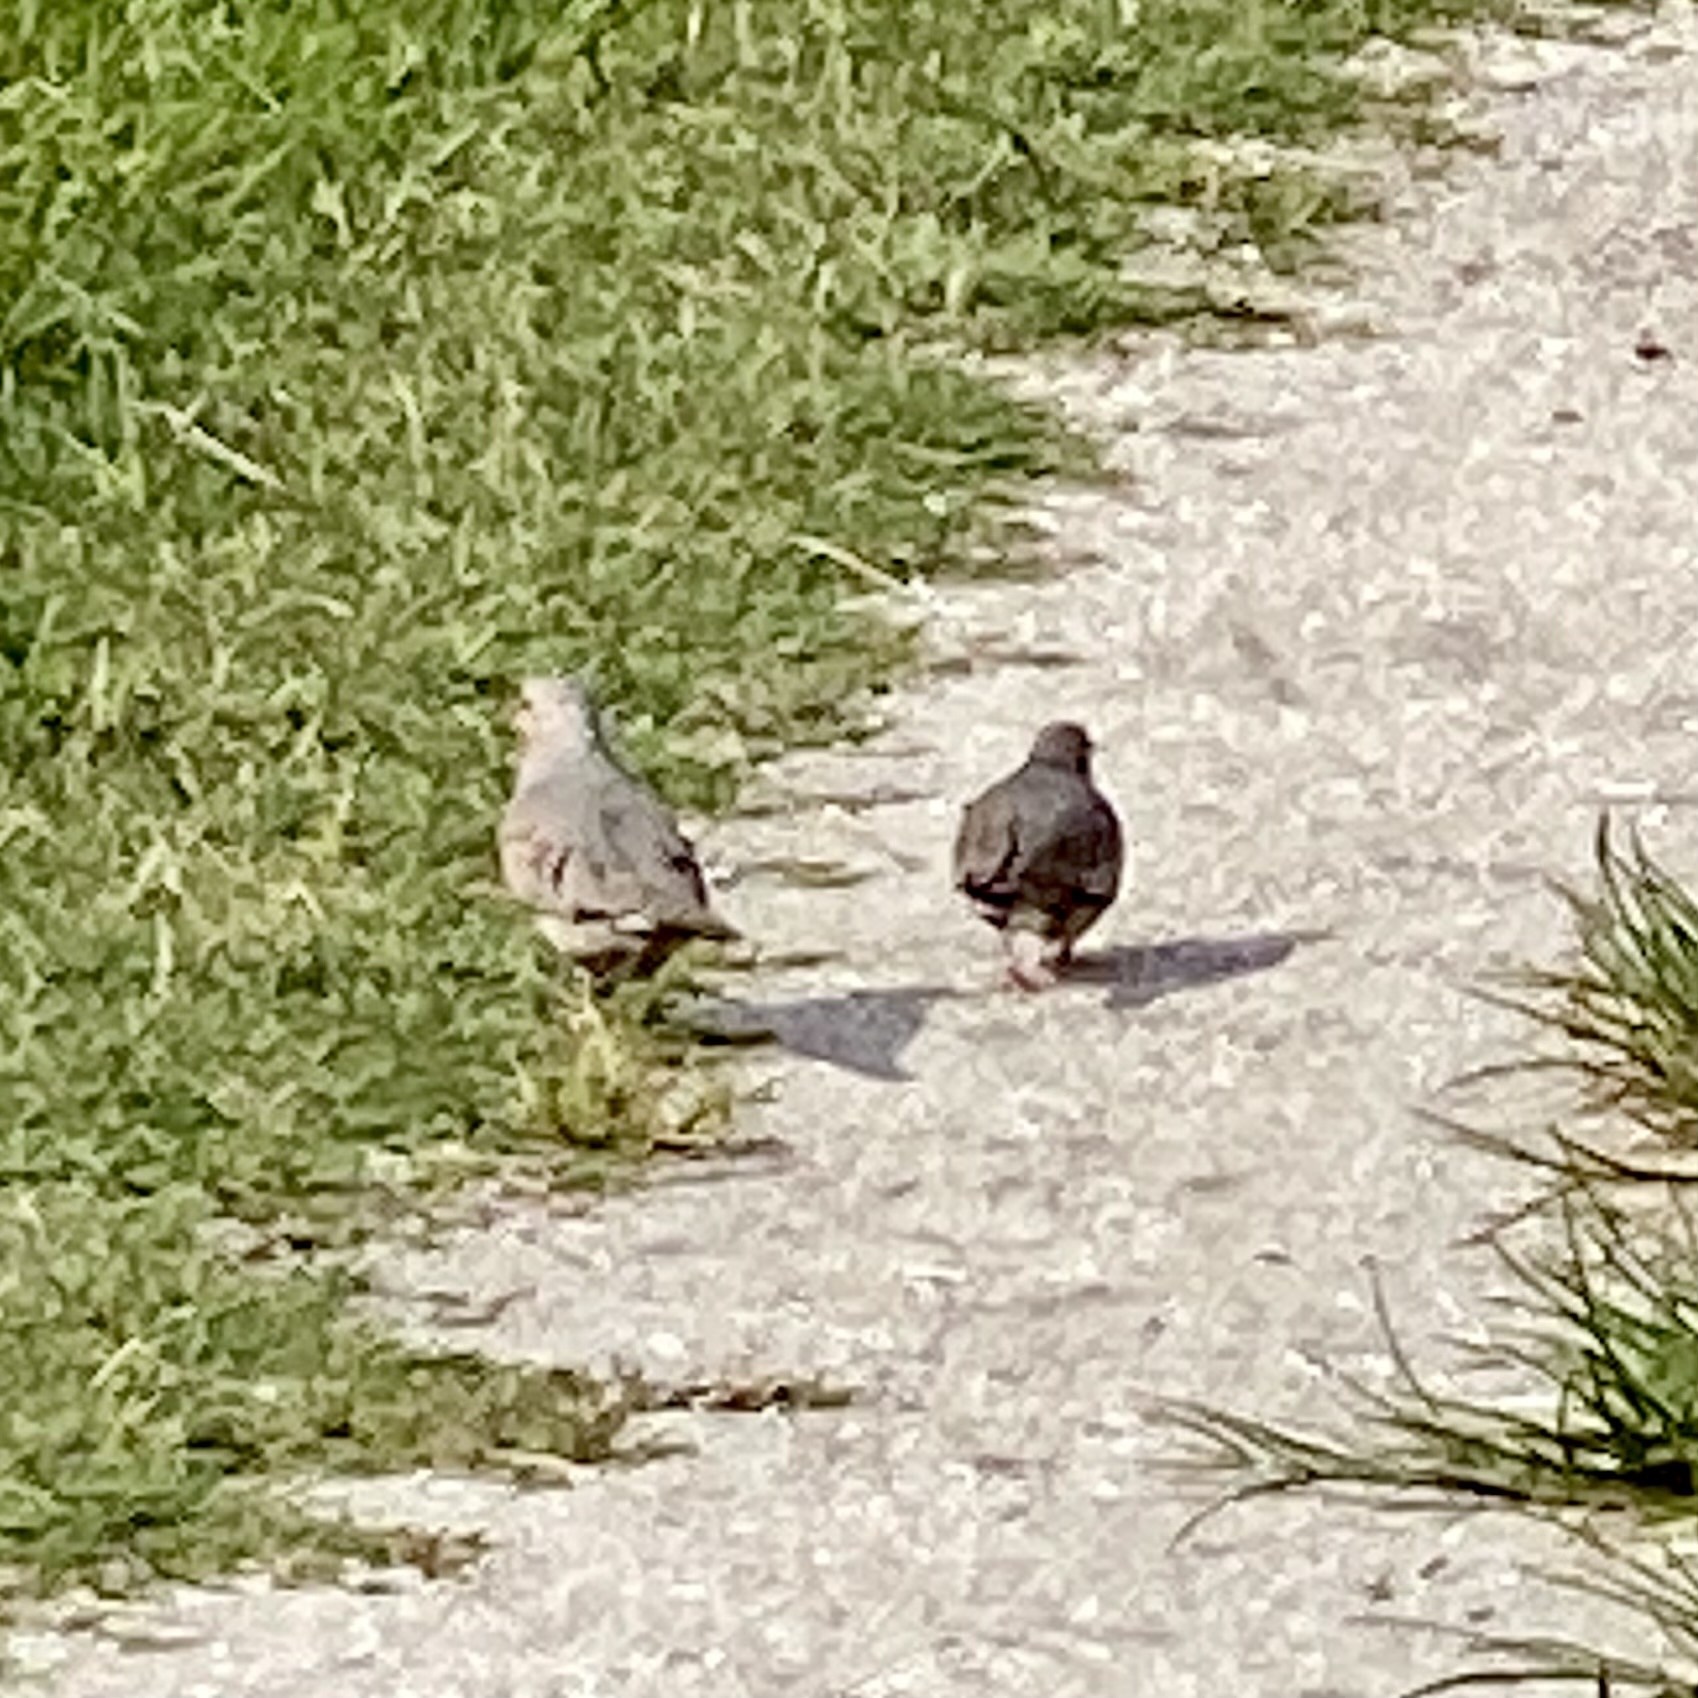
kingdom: Animalia
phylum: Chordata
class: Aves
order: Columbiformes
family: Columbidae
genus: Columbina
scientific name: Columbina passerina
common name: Common ground-dove
